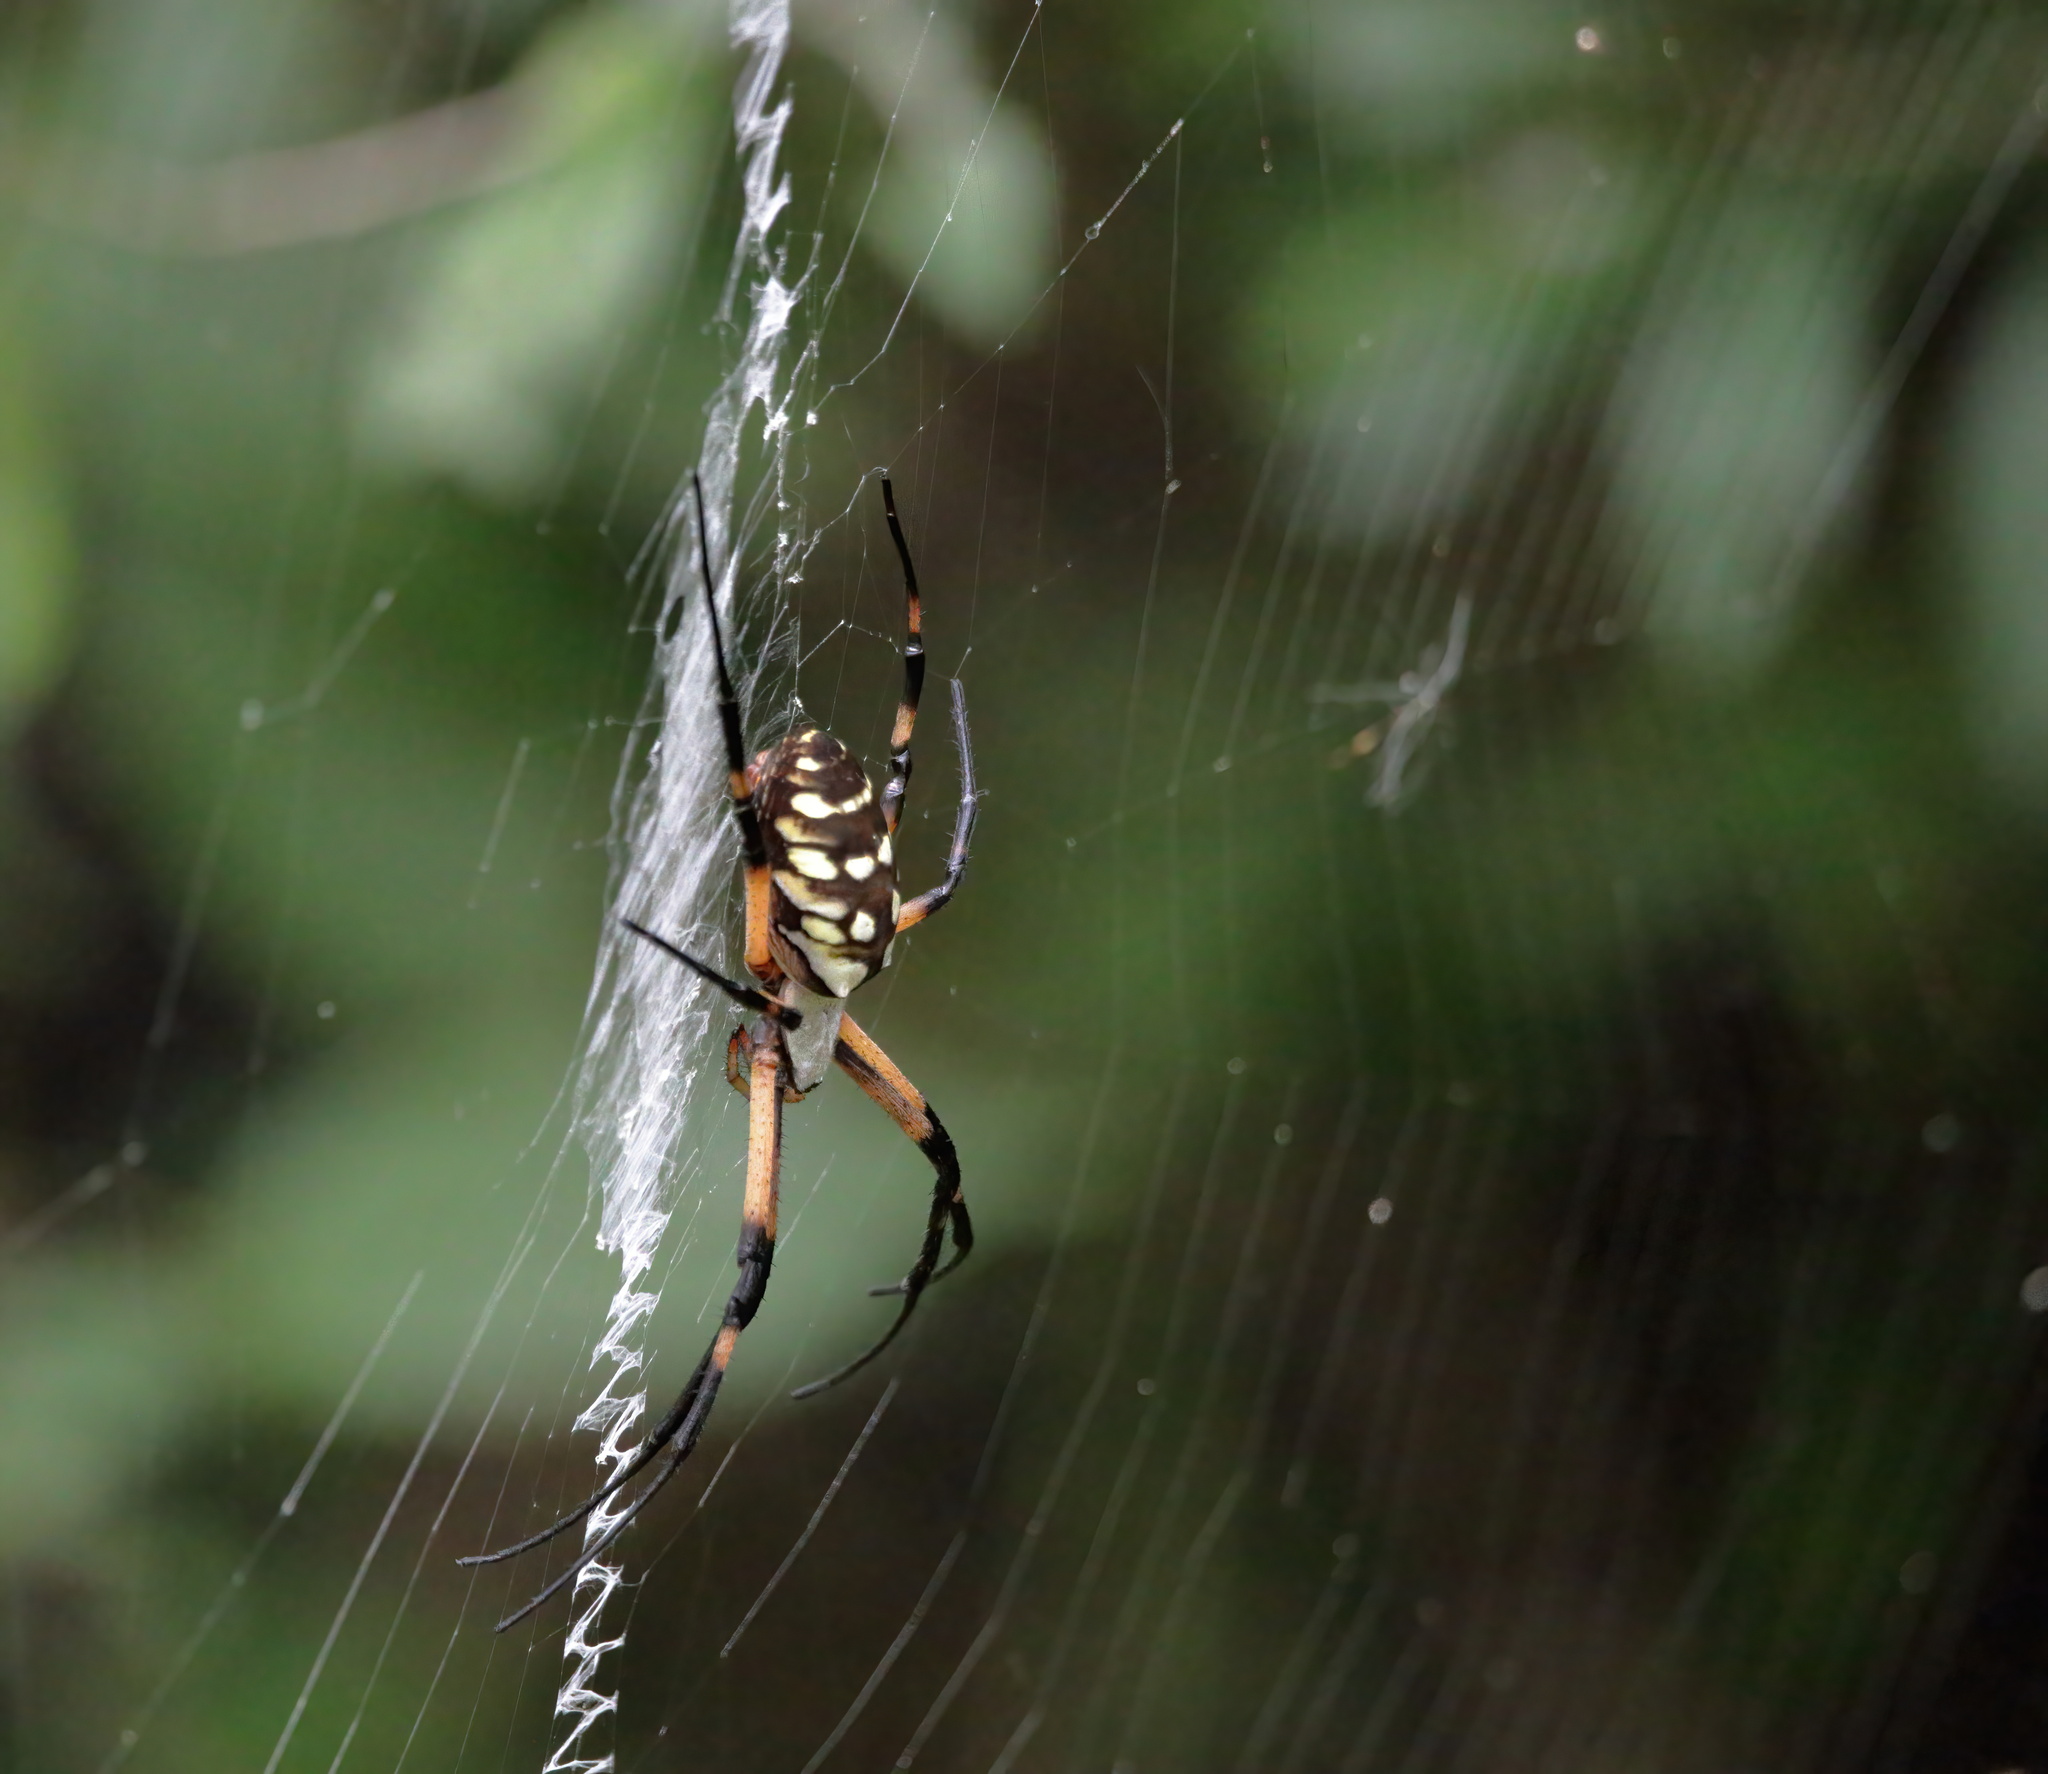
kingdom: Animalia
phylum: Arthropoda
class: Arachnida
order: Araneae
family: Araneidae
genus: Argiope
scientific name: Argiope aurantia
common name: Orb weavers
